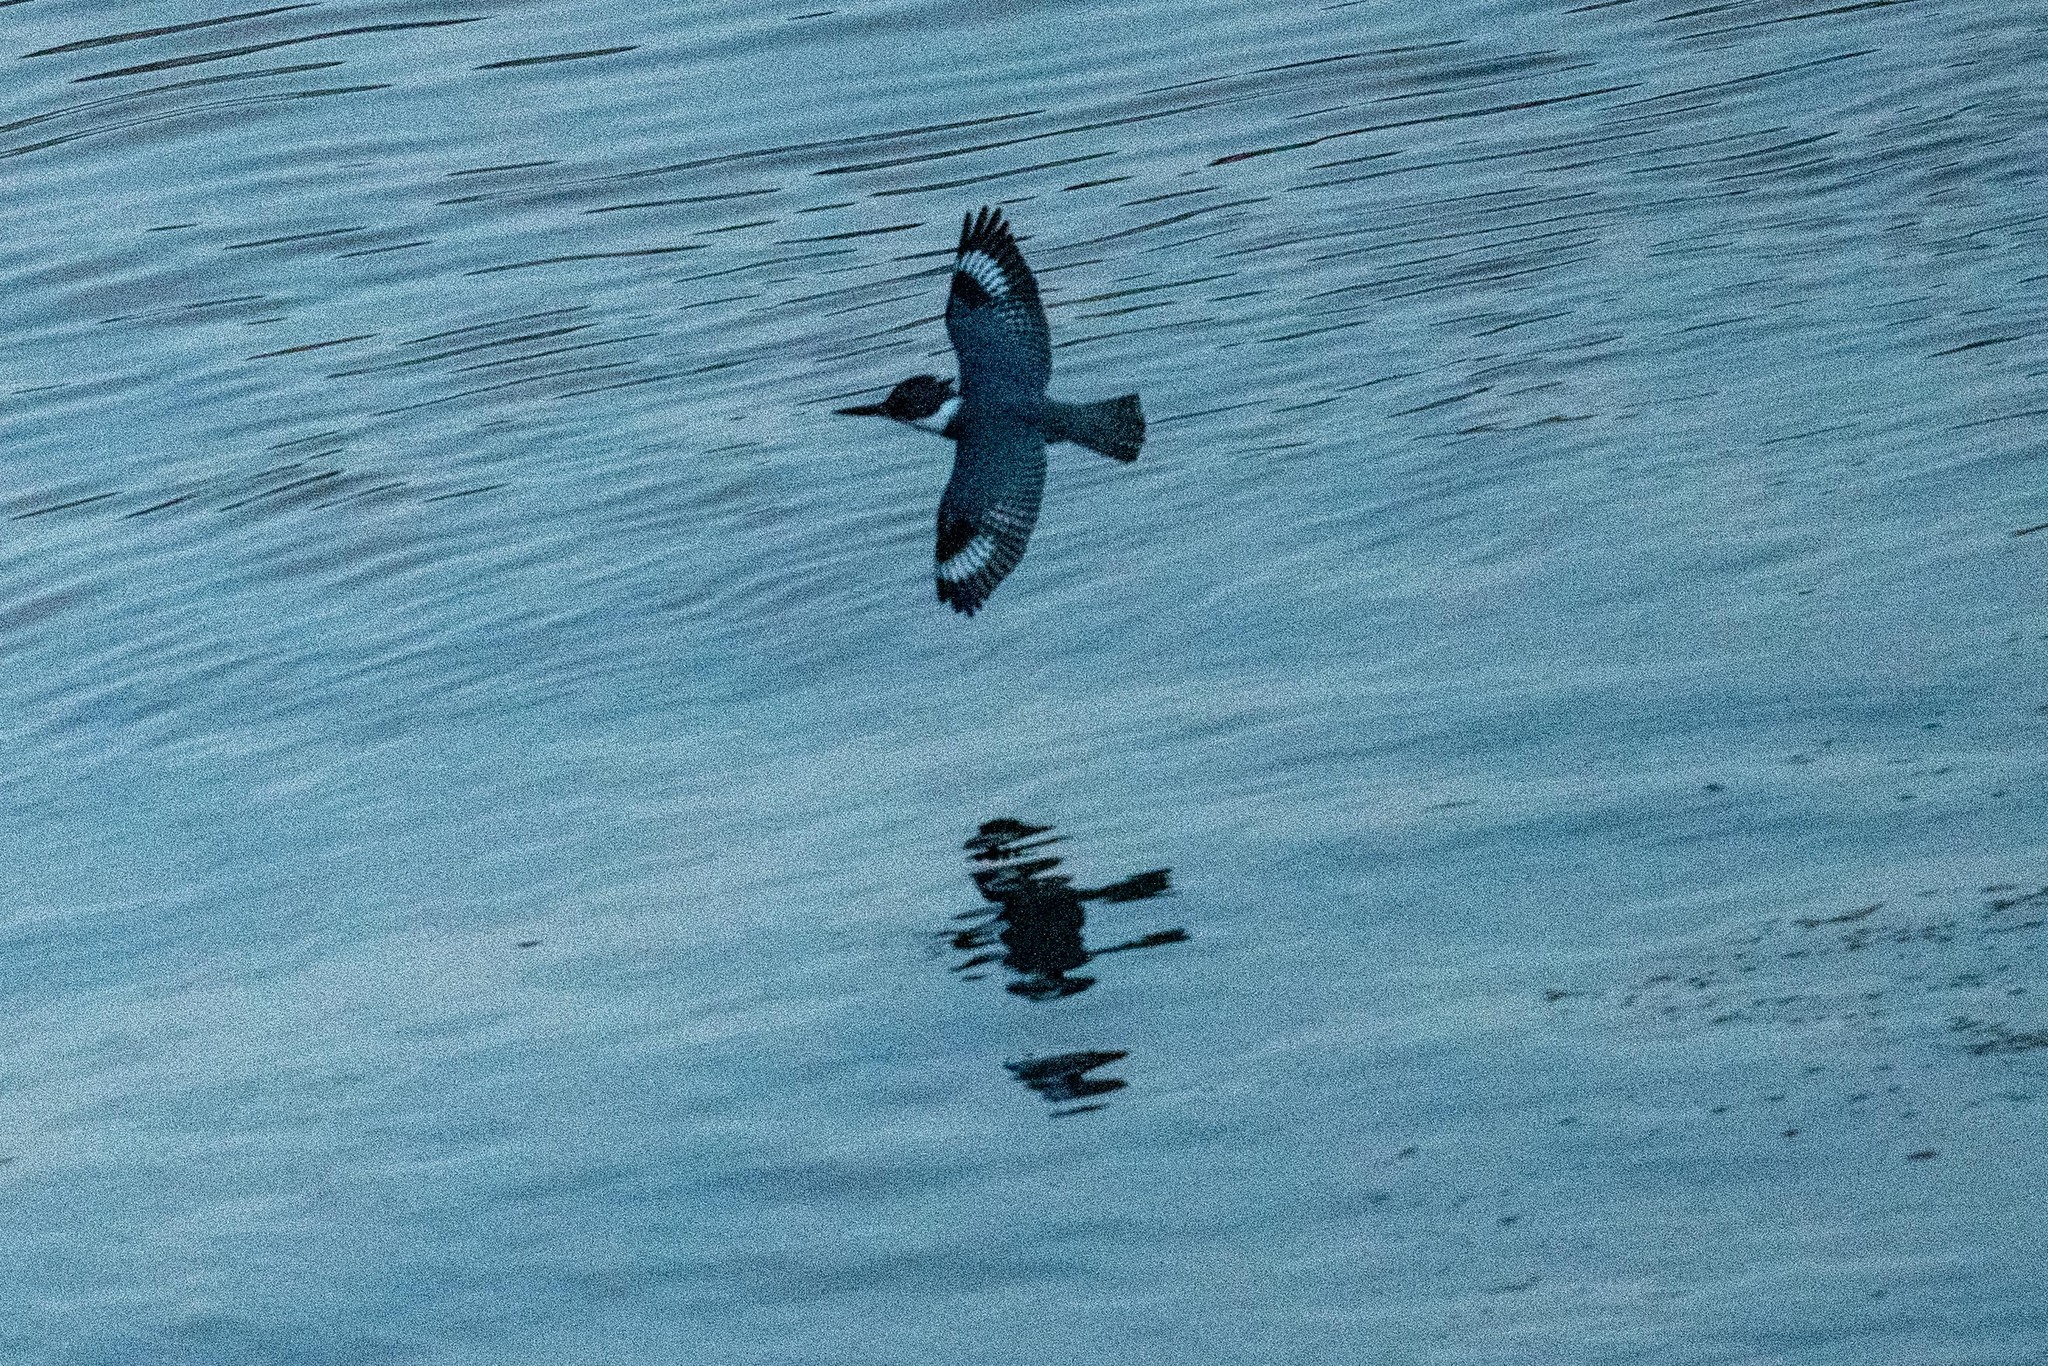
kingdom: Animalia
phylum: Chordata
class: Aves
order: Coraciiformes
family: Alcedinidae
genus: Megaceryle
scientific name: Megaceryle alcyon
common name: Belted kingfisher
